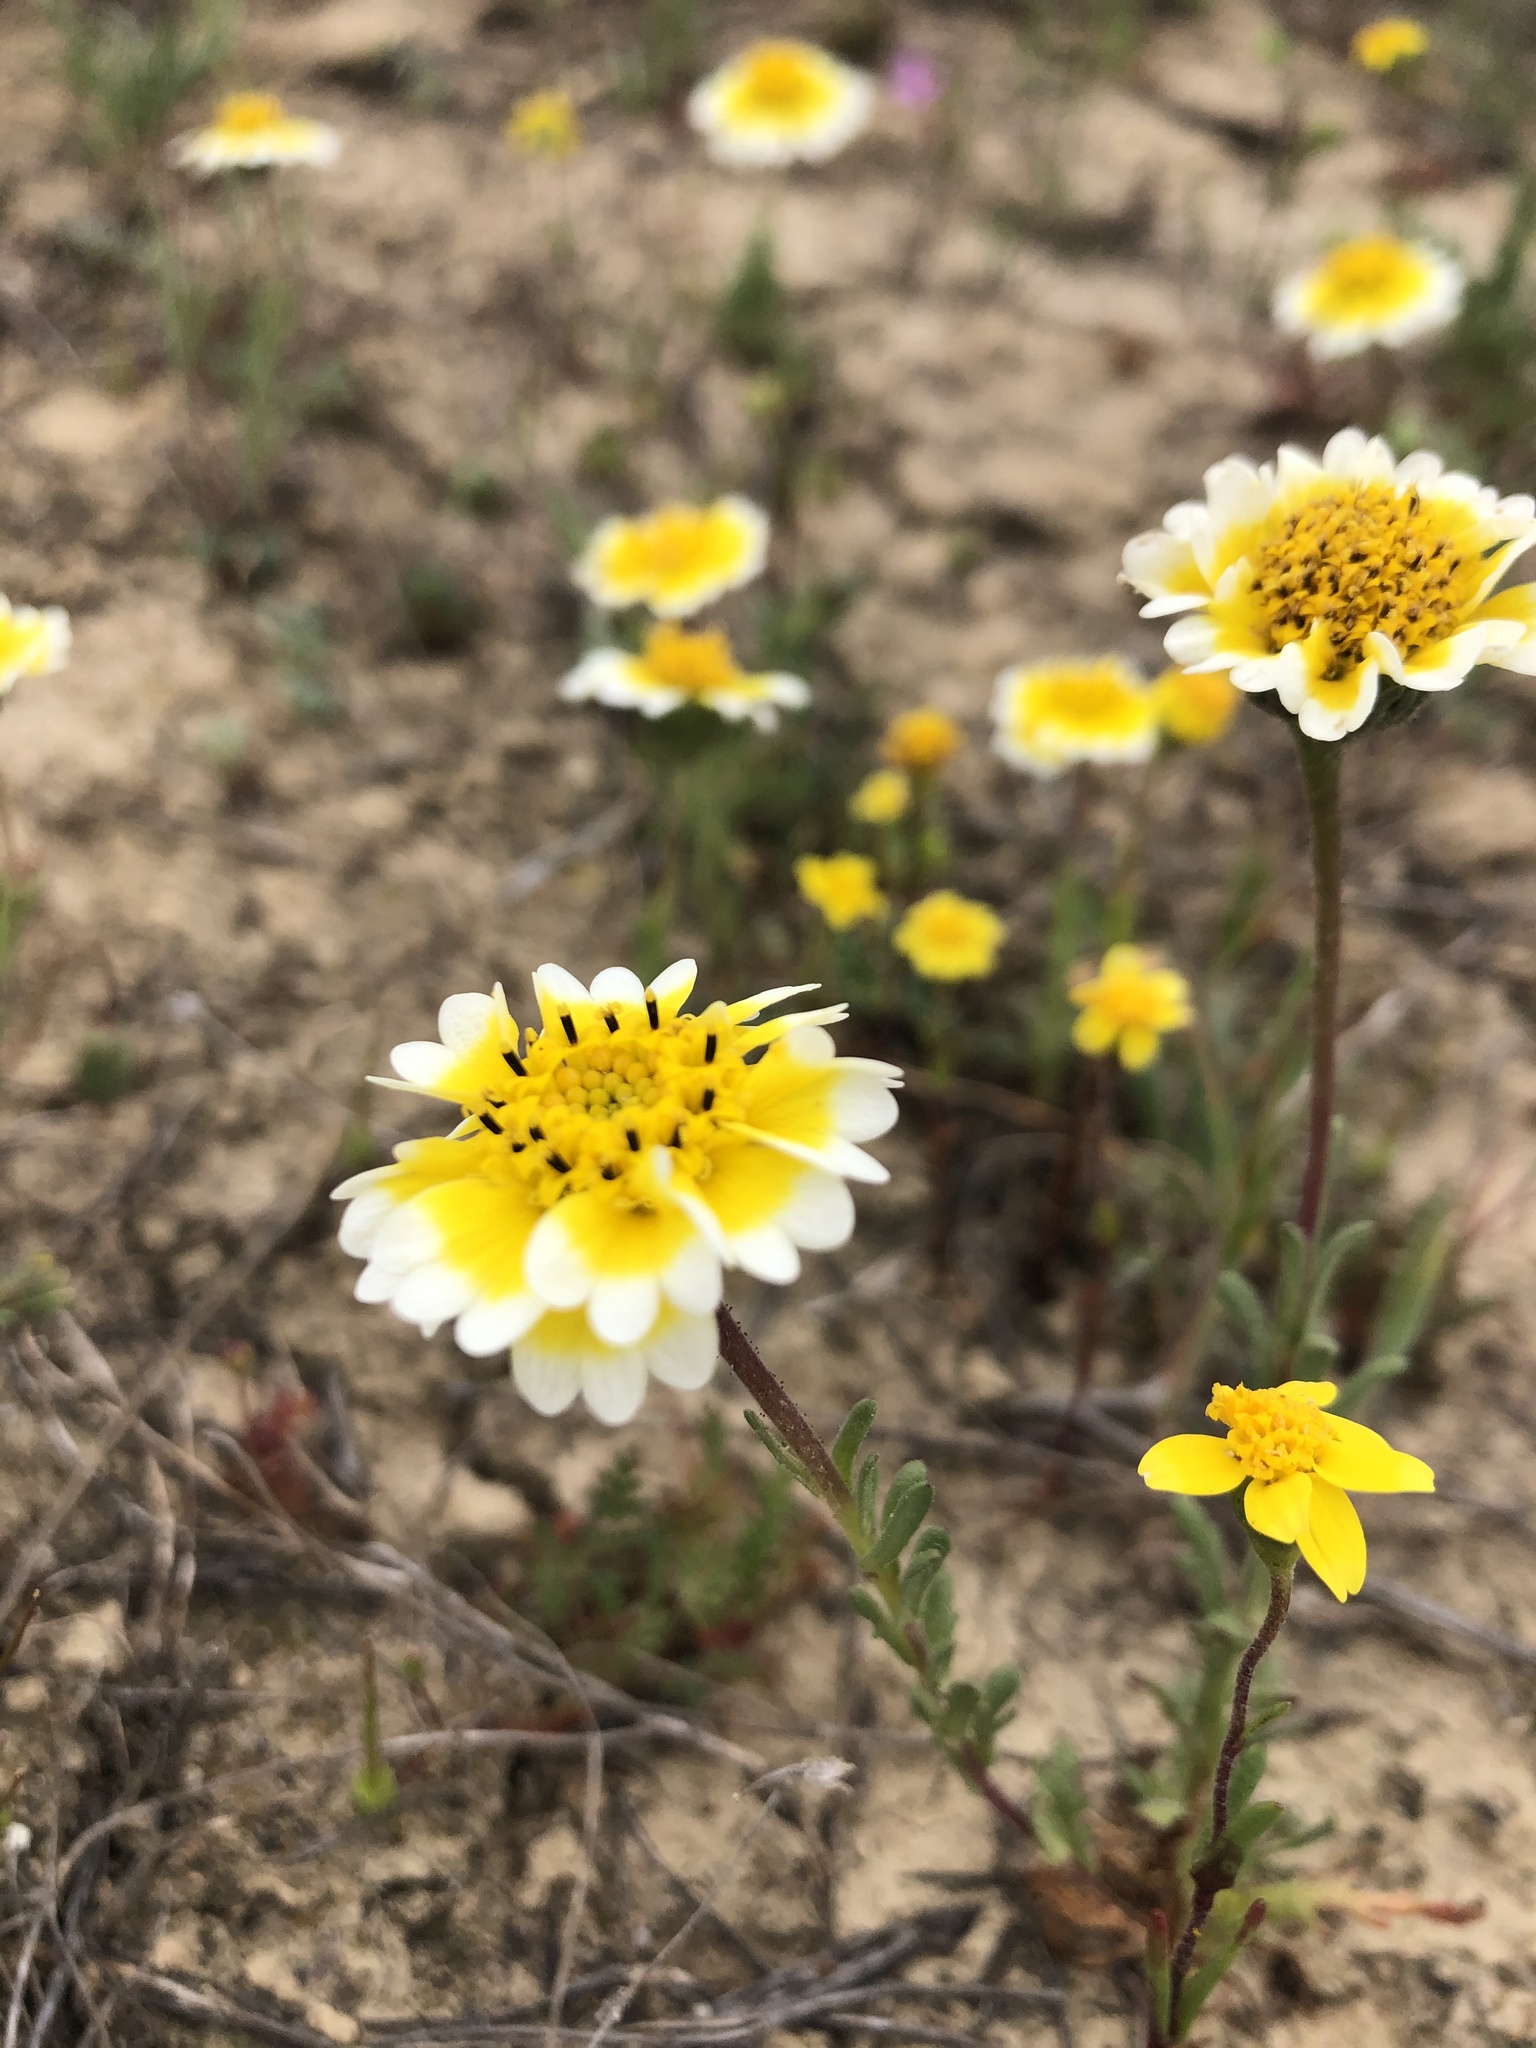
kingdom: Plantae
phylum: Tracheophyta
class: Magnoliopsida
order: Asterales
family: Asteraceae
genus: Layia
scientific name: Layia munzii
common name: Munz's tidy-tips
